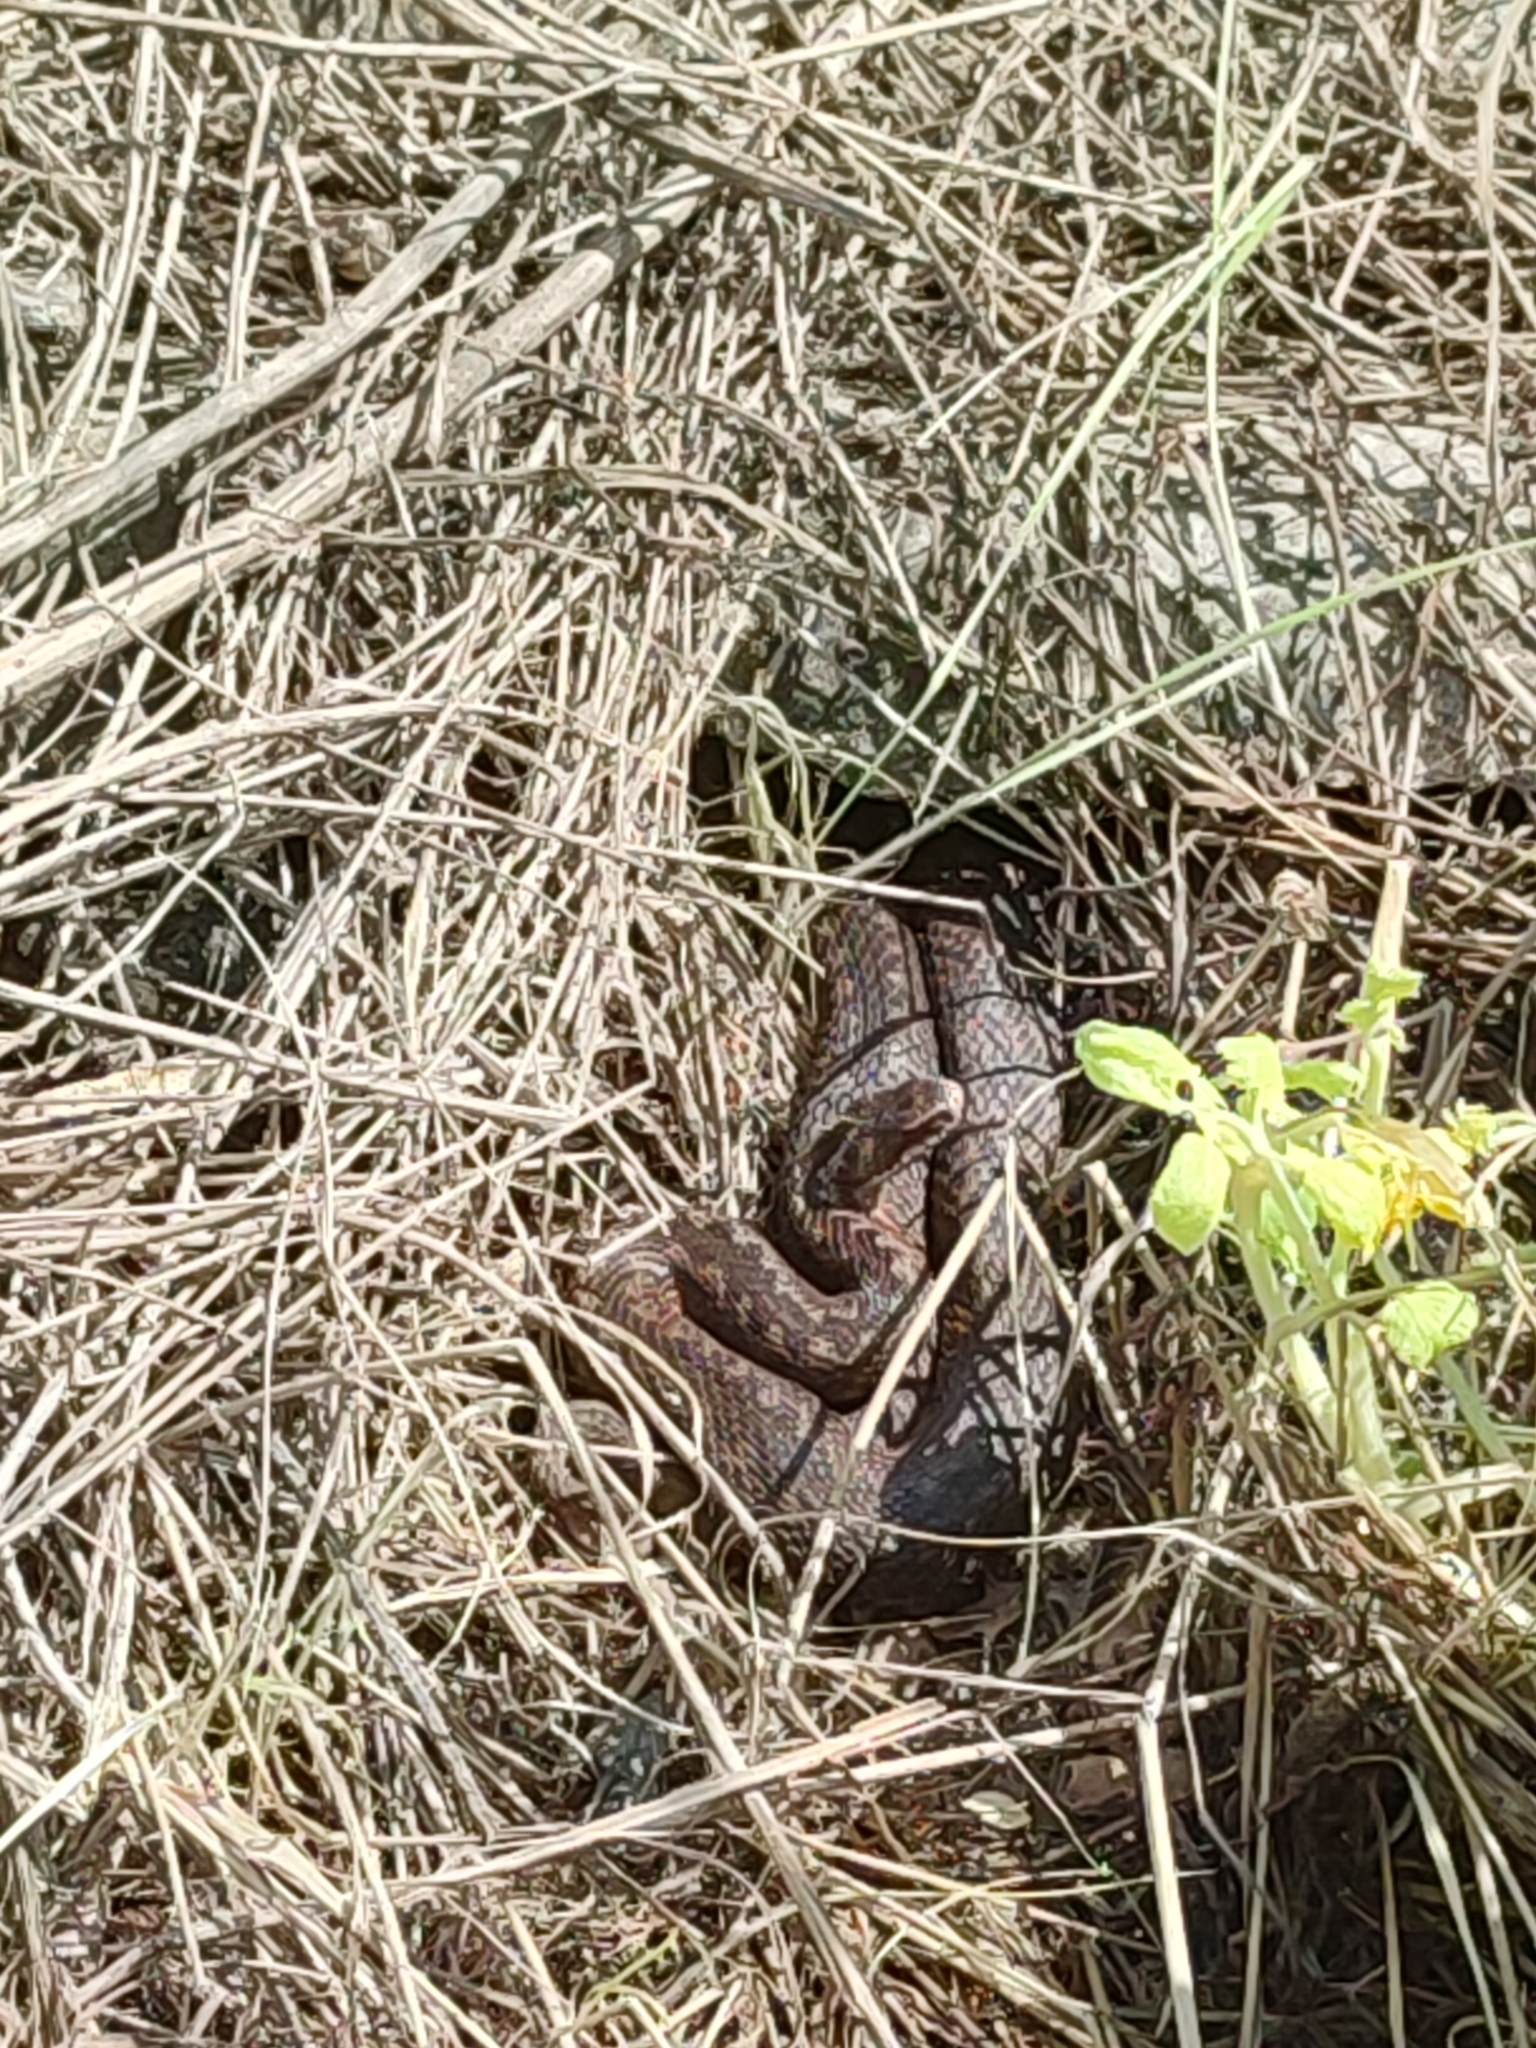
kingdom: Animalia
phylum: Chordata
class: Squamata
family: Viperidae
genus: Vipera
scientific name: Vipera berus
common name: Adder
